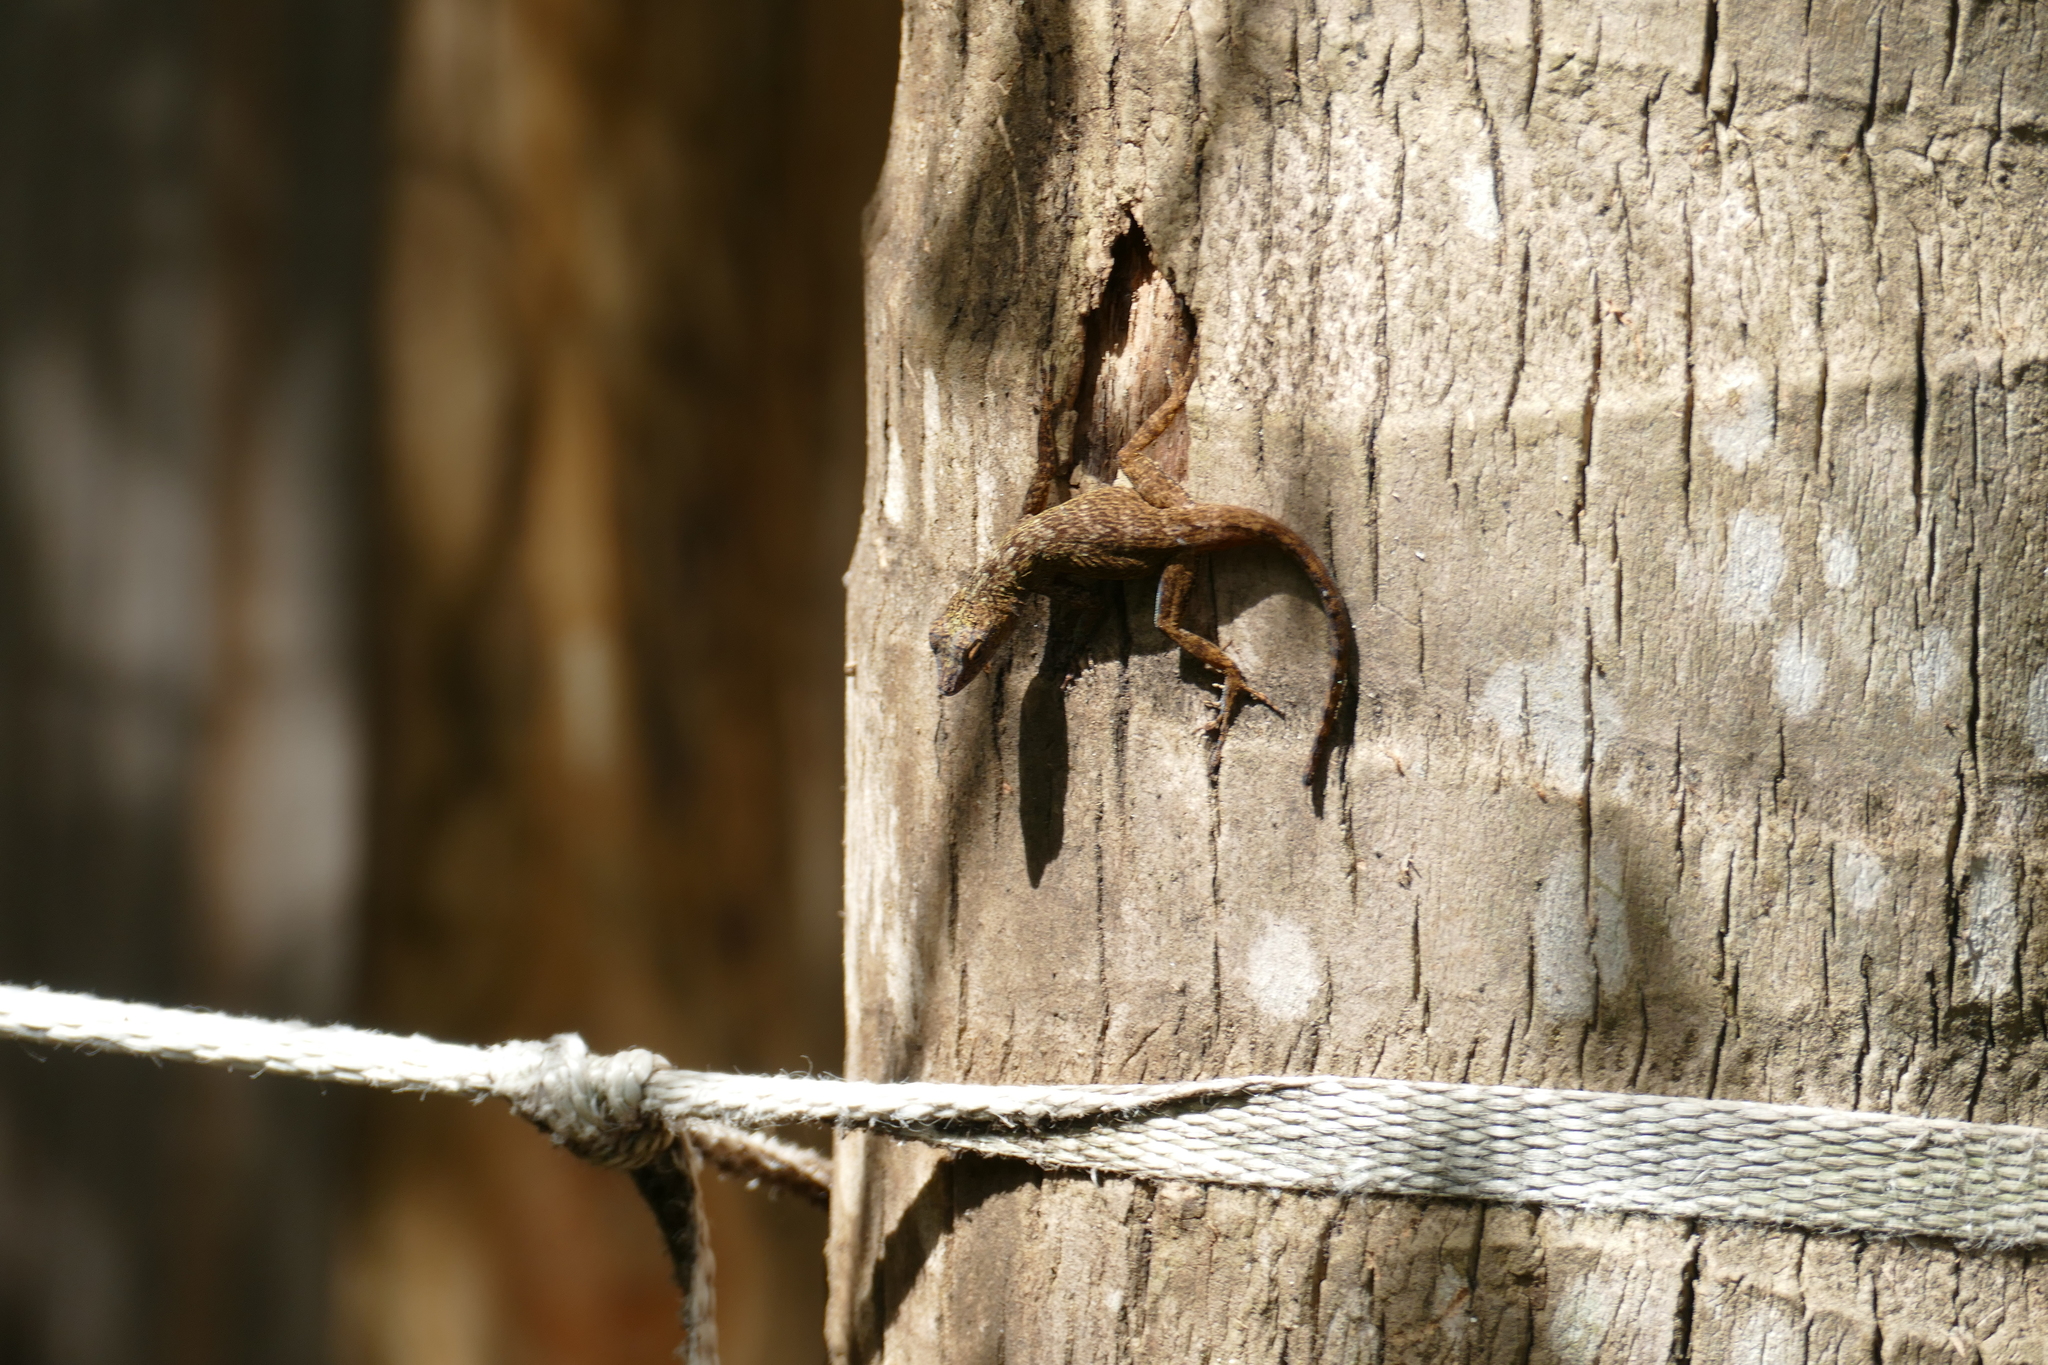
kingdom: Animalia
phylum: Chordata
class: Squamata
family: Dactyloidae
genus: Anolis
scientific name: Anolis distichus
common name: Bark anole
